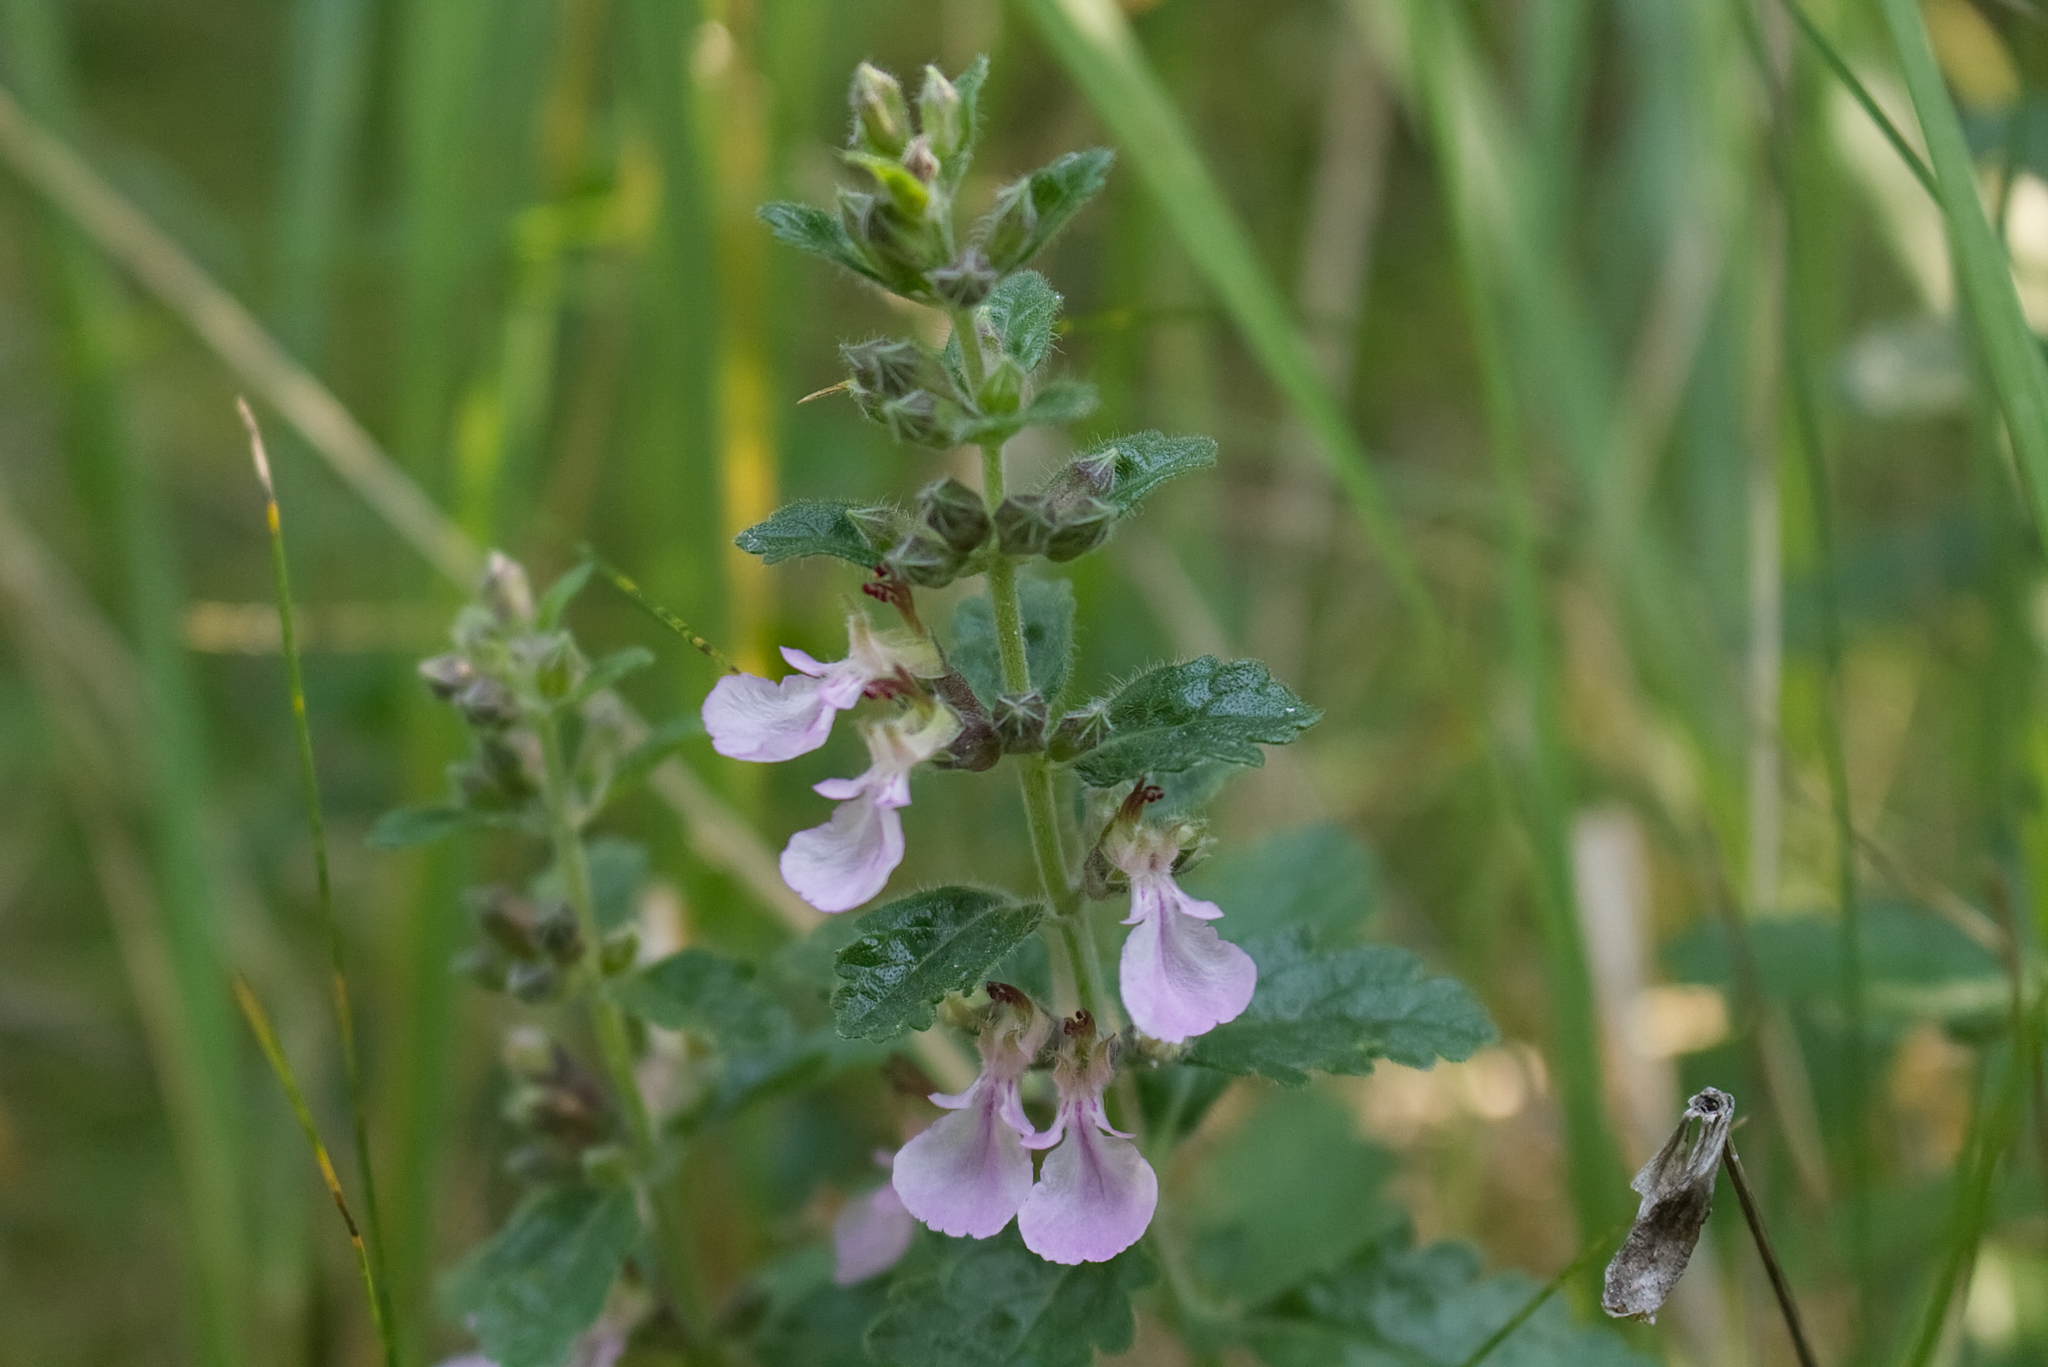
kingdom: Plantae
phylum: Tracheophyta
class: Magnoliopsida
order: Lamiales
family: Lamiaceae
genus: Teucrium
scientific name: Teucrium chamaedrys
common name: Wall germander
